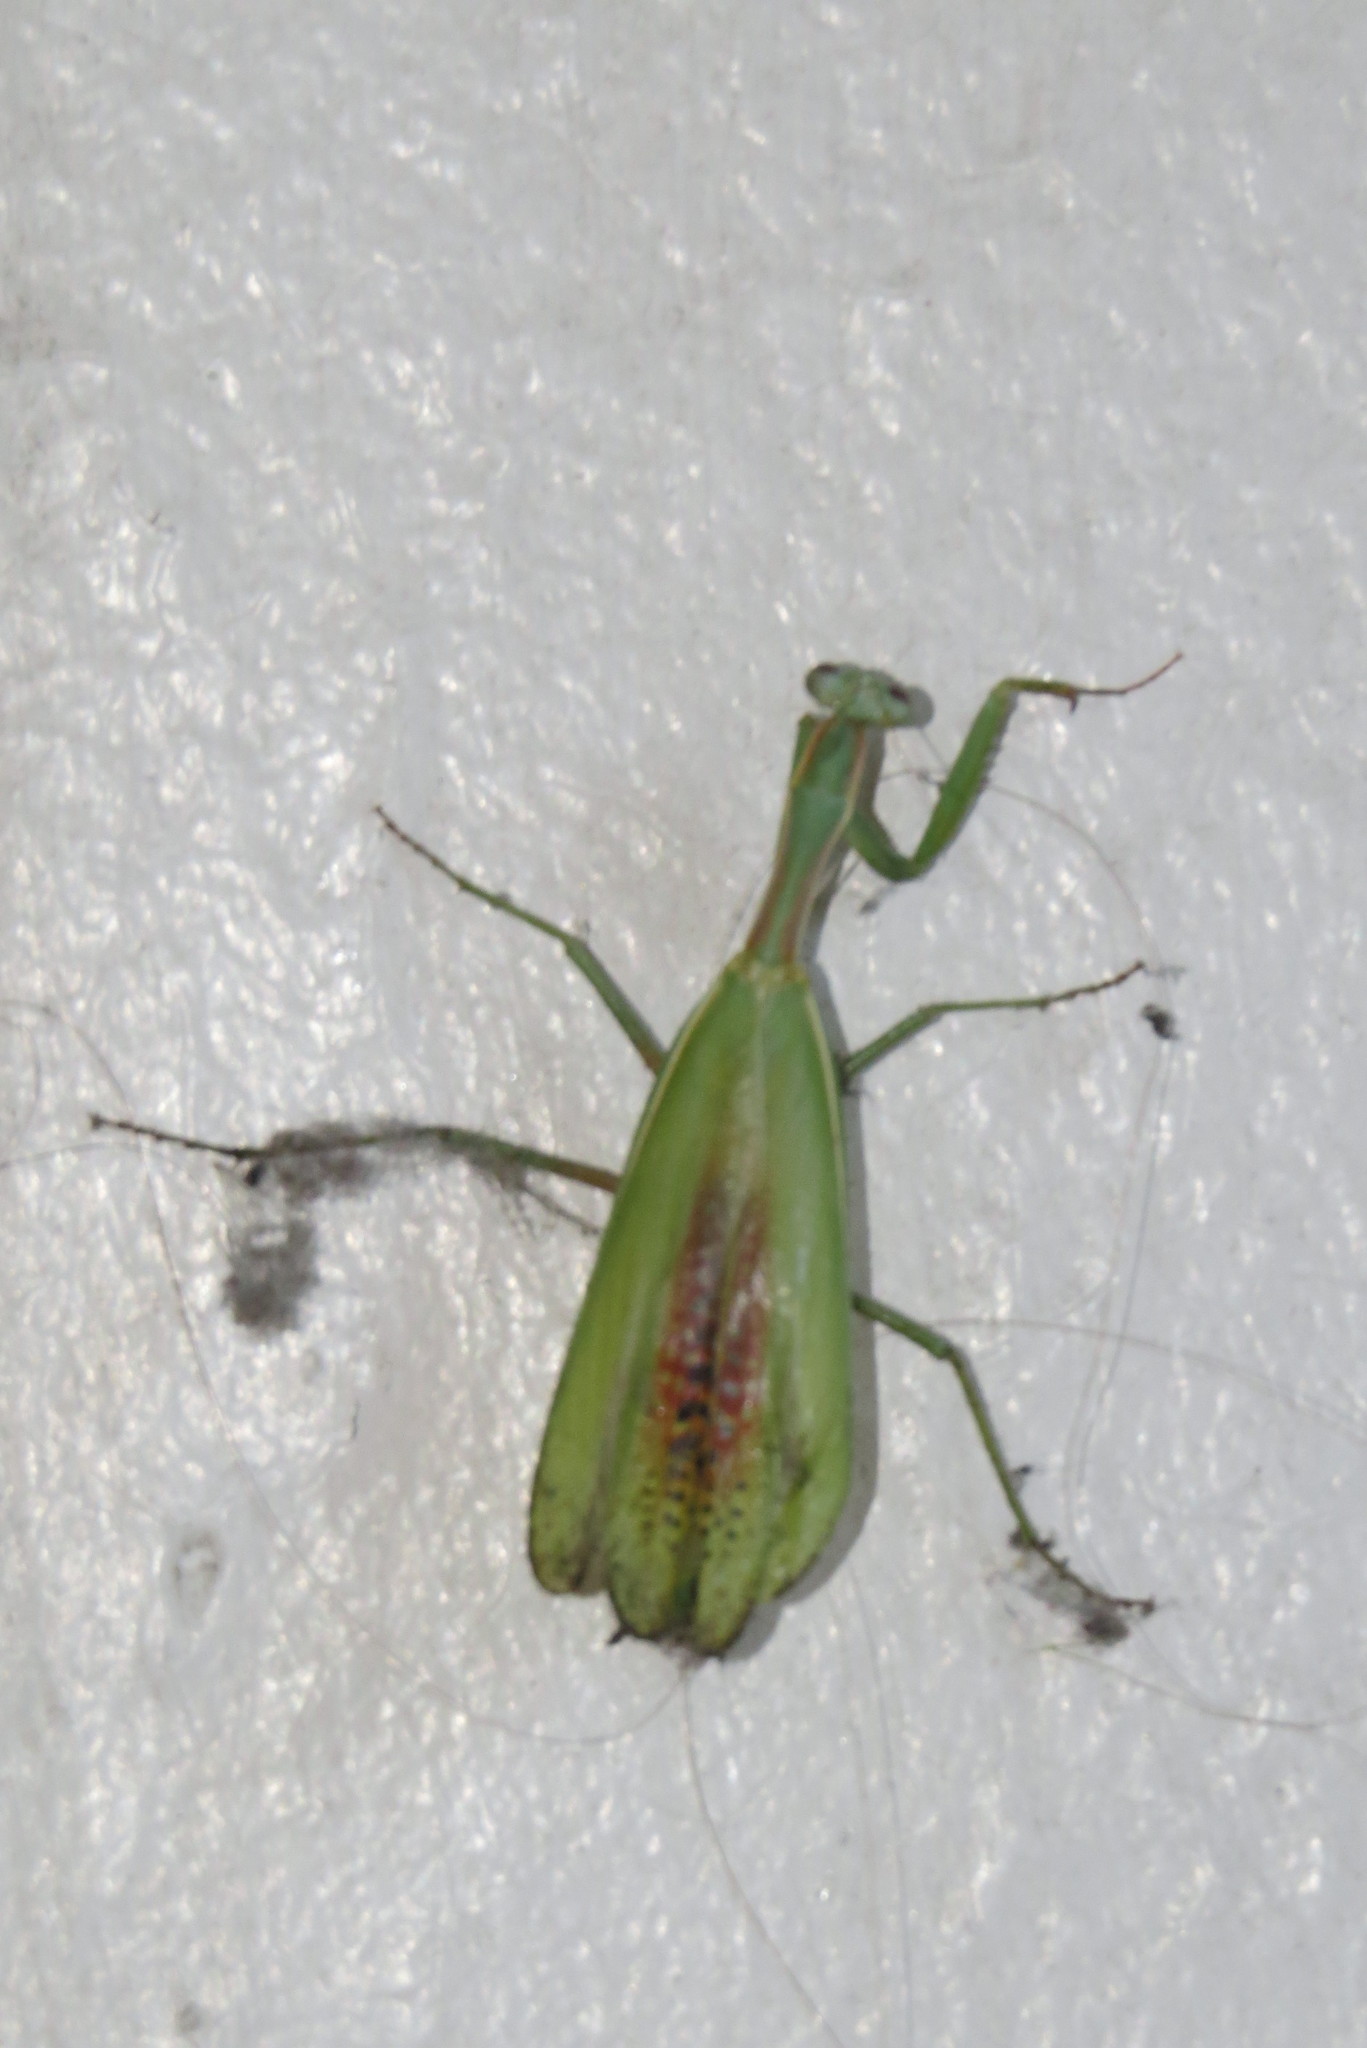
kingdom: Animalia
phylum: Arthropoda
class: Insecta
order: Mantodea
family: Eremiaphilidae
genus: Iris
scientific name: Iris oratoria
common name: Mediterranean mantis
